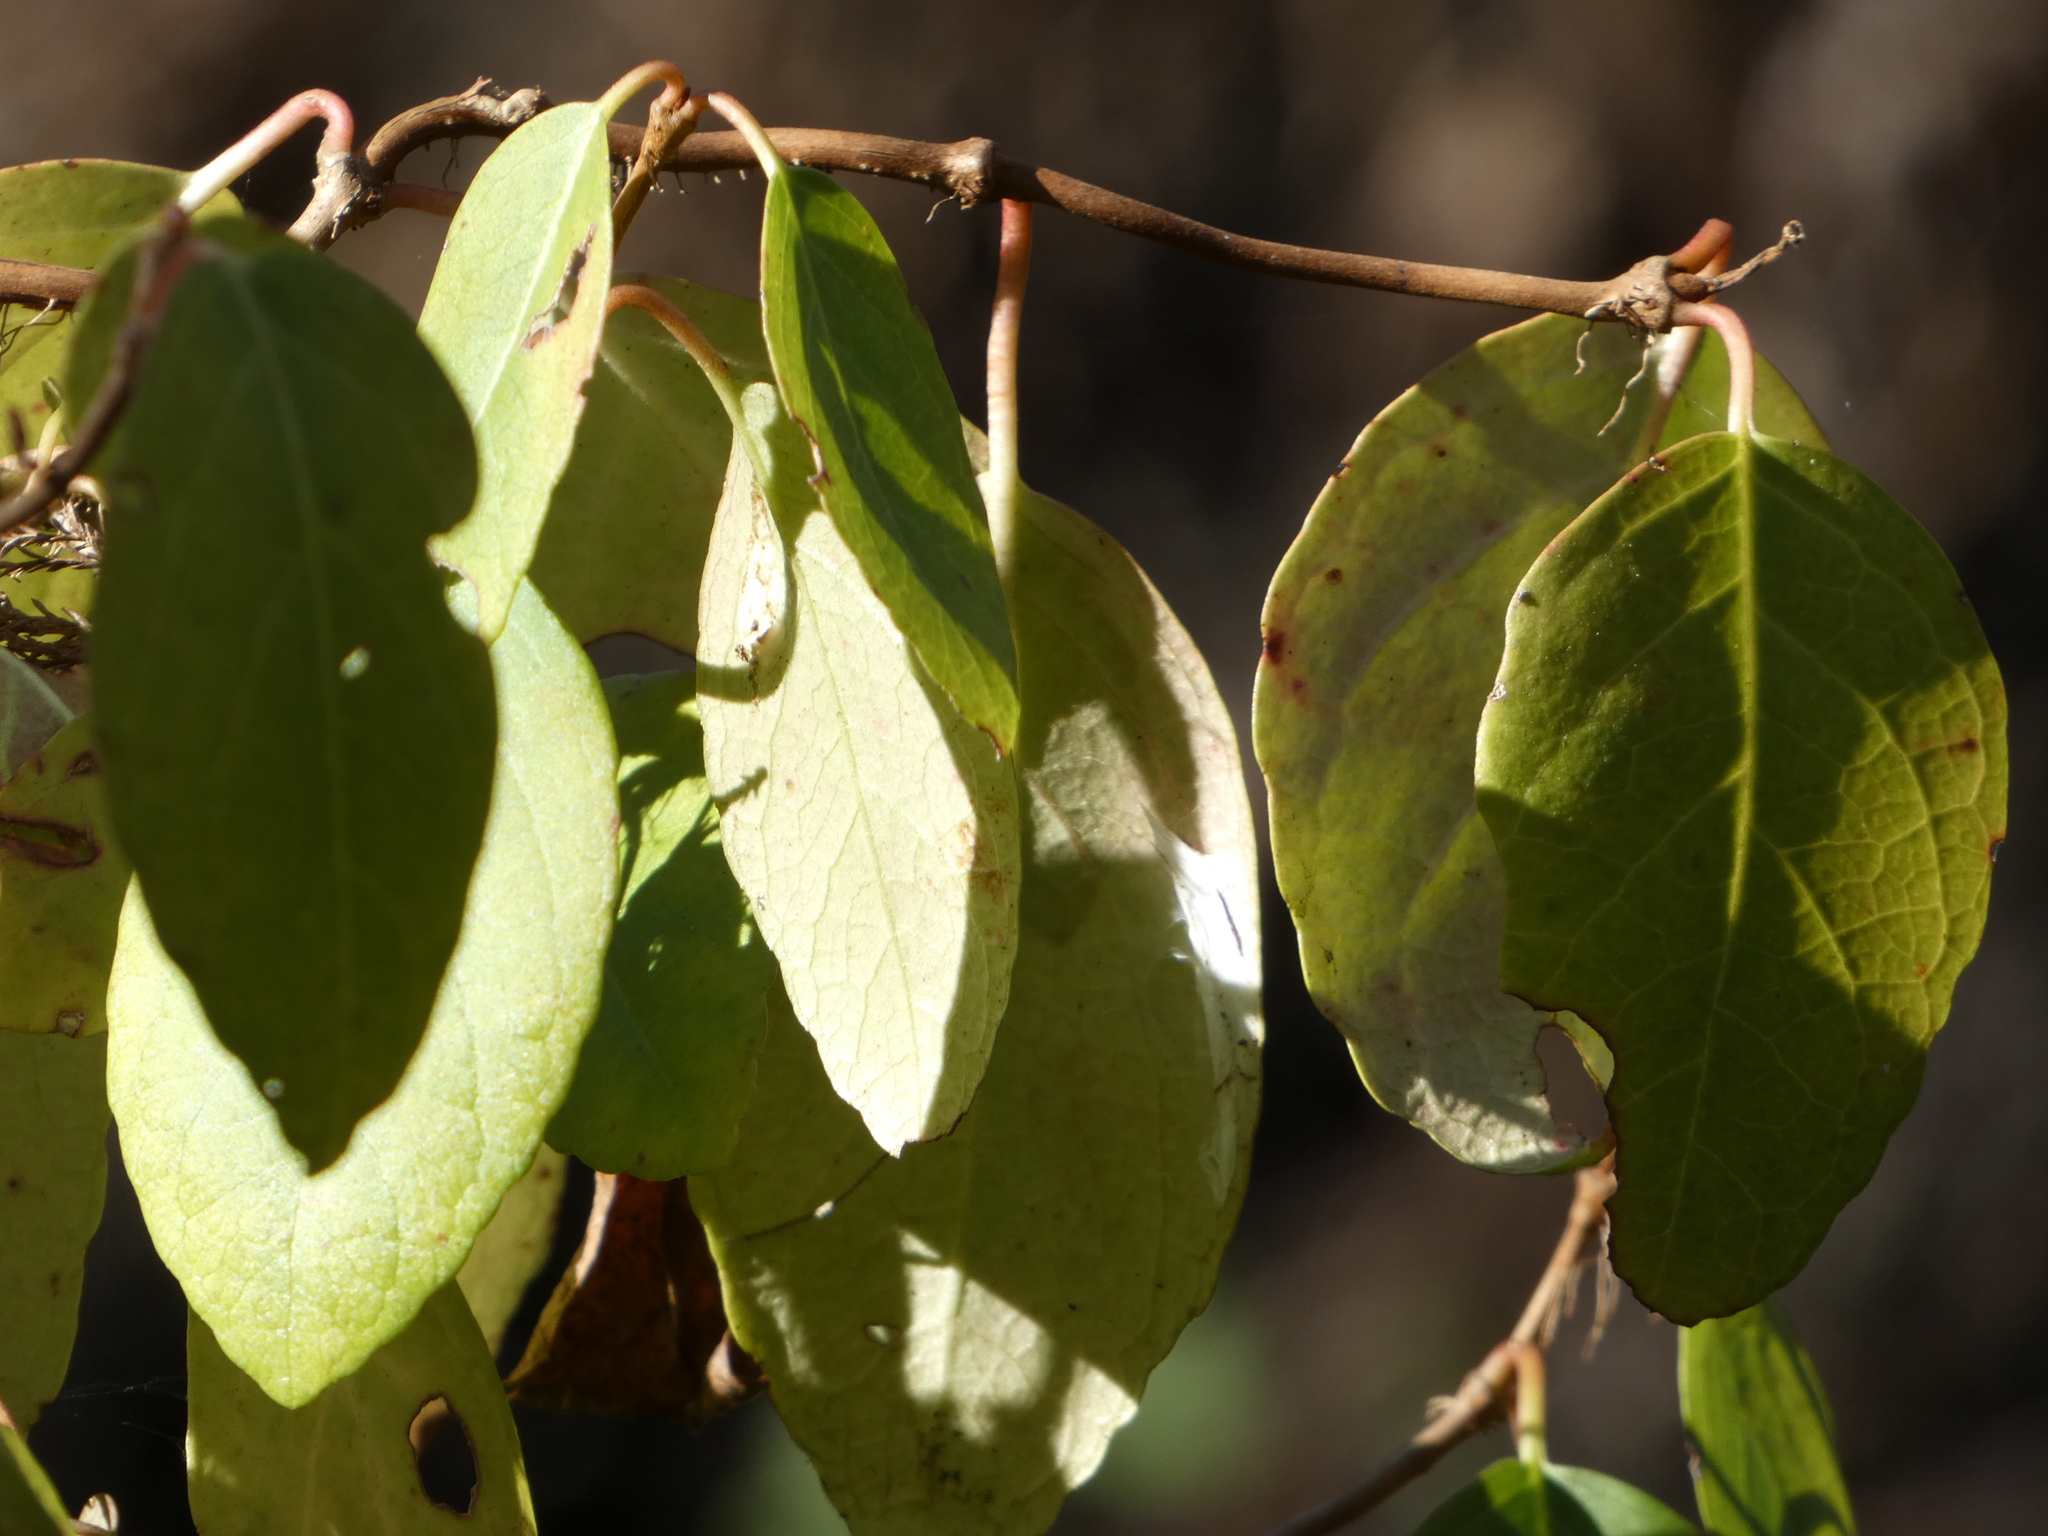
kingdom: Plantae
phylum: Tracheophyta
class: Magnoliopsida
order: Cornales
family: Hydrangeaceae
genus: Hydrangea
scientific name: Hydrangea barbara
